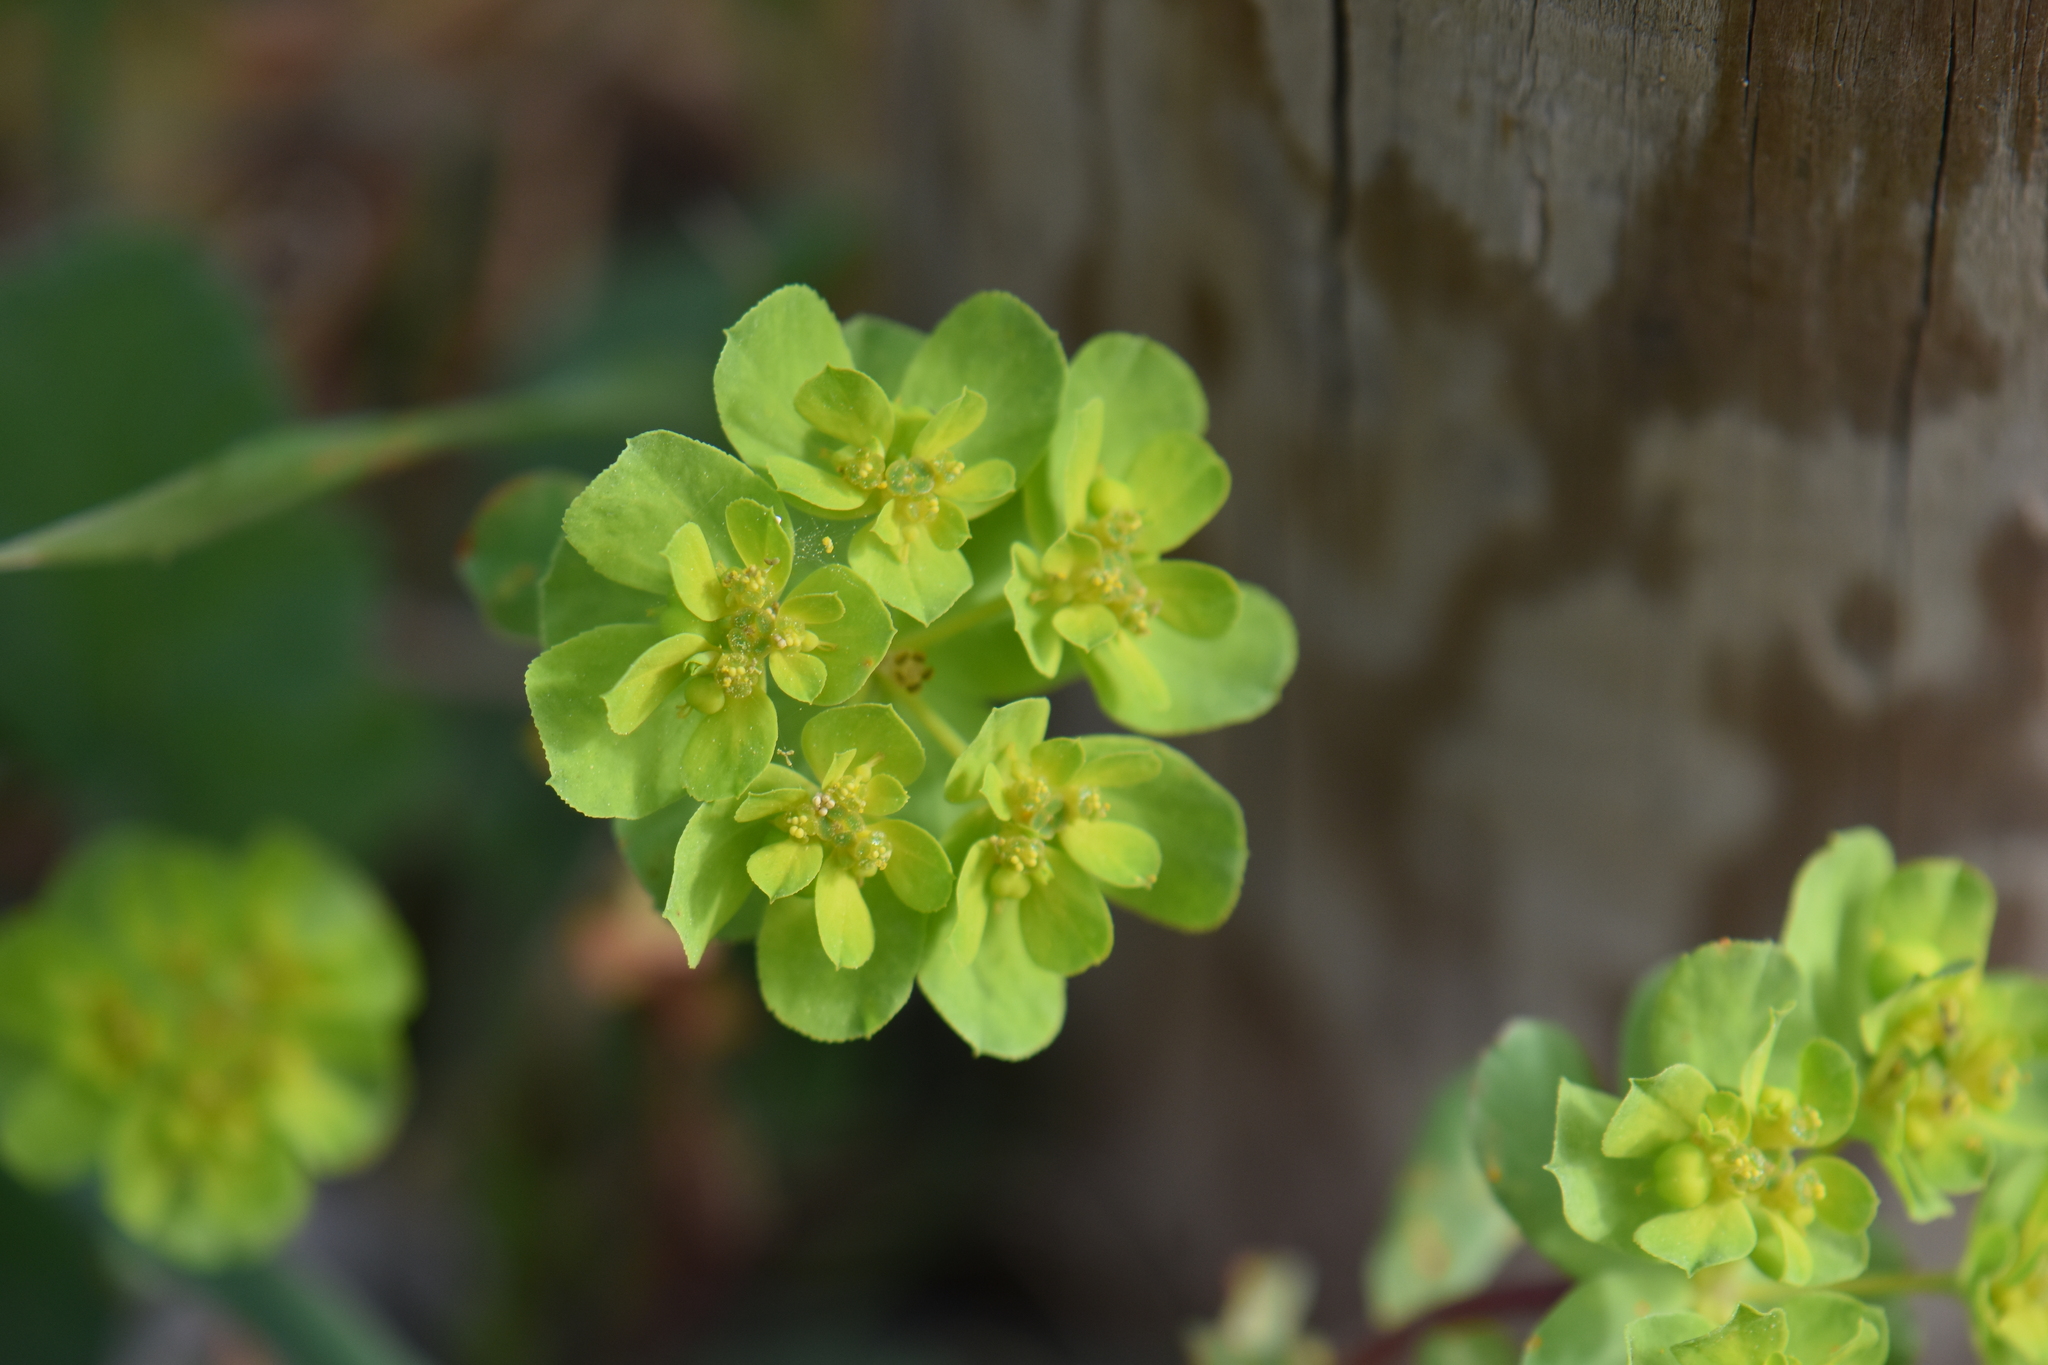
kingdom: Plantae
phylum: Tracheophyta
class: Magnoliopsida
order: Malpighiales
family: Euphorbiaceae
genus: Euphorbia
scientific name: Euphorbia helioscopia
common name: Sun spurge
